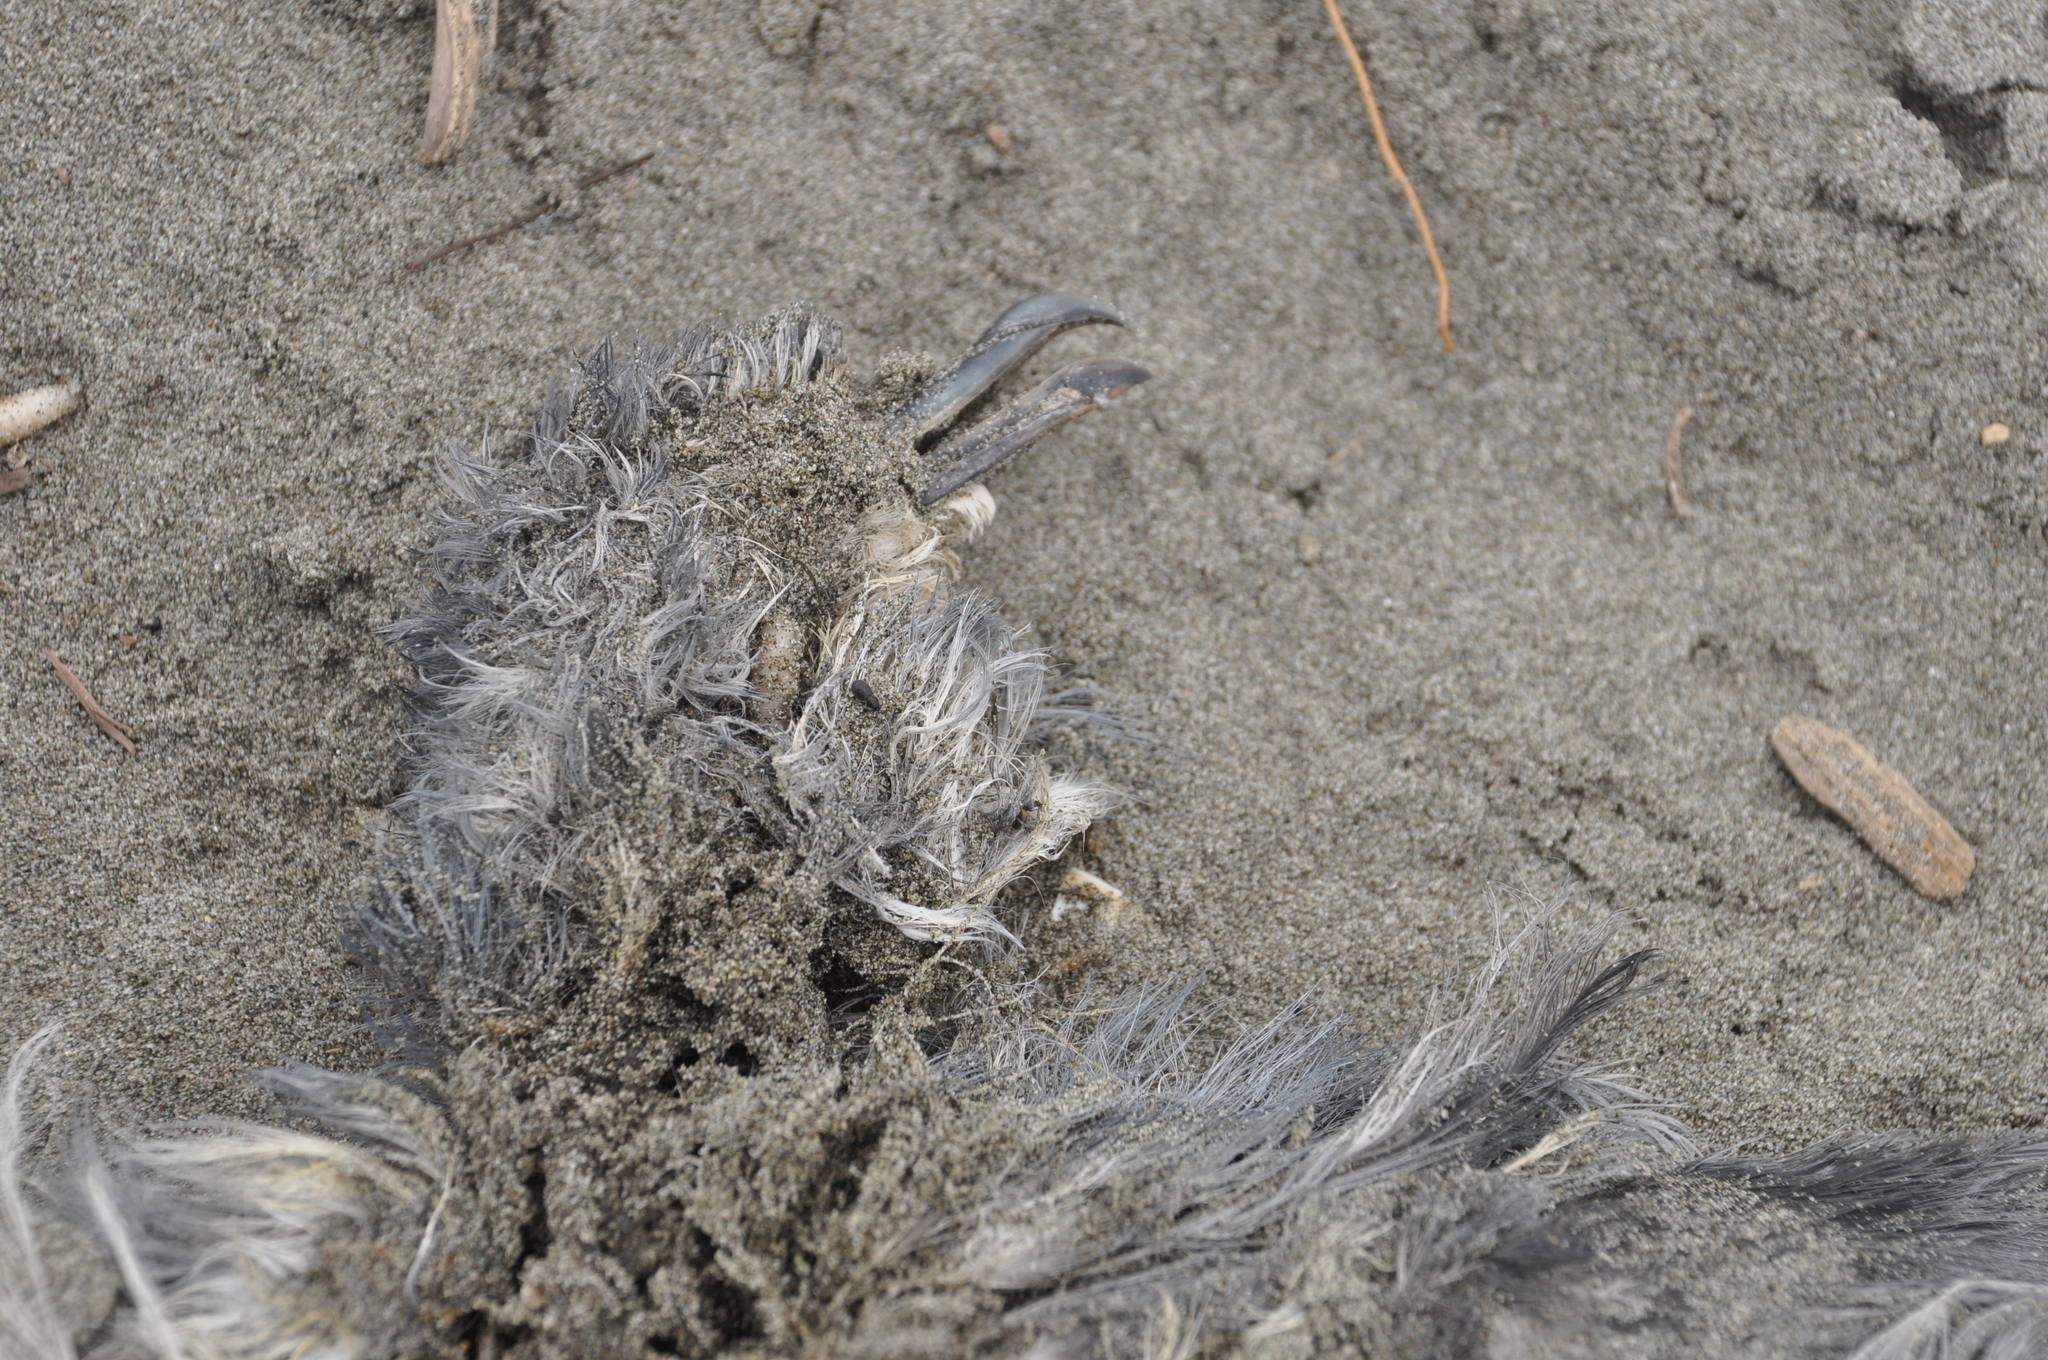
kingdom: Animalia
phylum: Chordata
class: Aves
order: Procellariiformes
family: Procellariidae
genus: Pachyptila
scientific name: Pachyptila turtur
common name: Fairy prion
